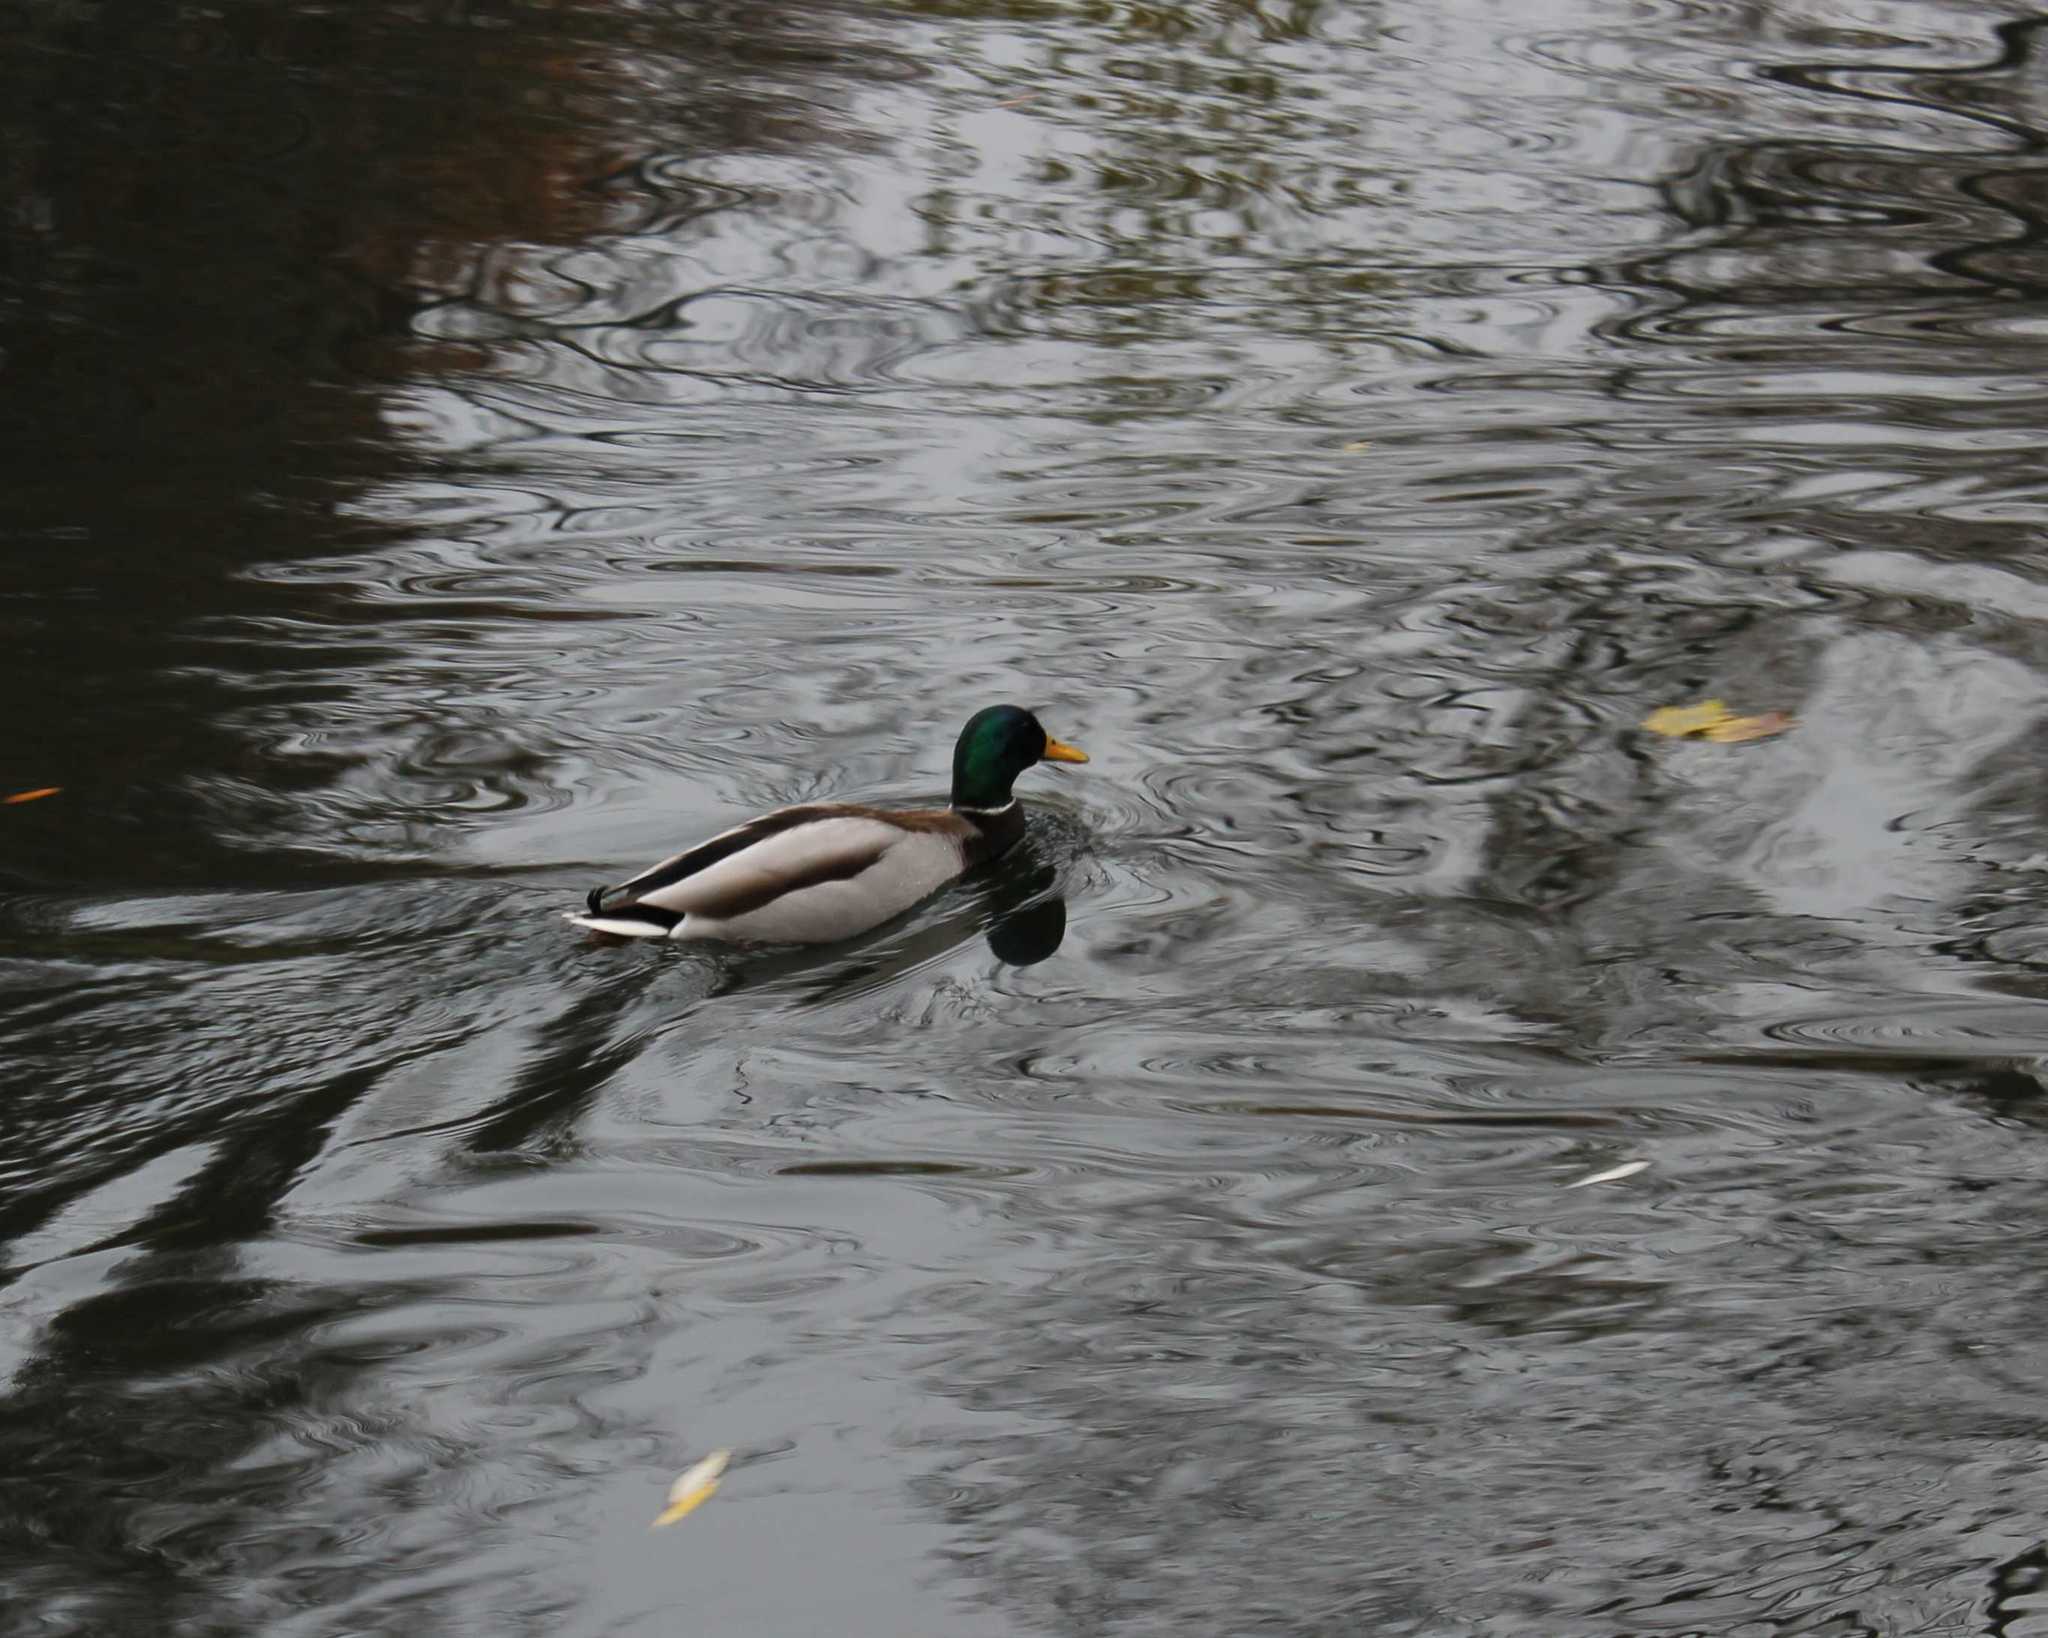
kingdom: Animalia
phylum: Chordata
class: Aves
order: Anseriformes
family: Anatidae
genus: Anas
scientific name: Anas platyrhynchos
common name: Mallard
